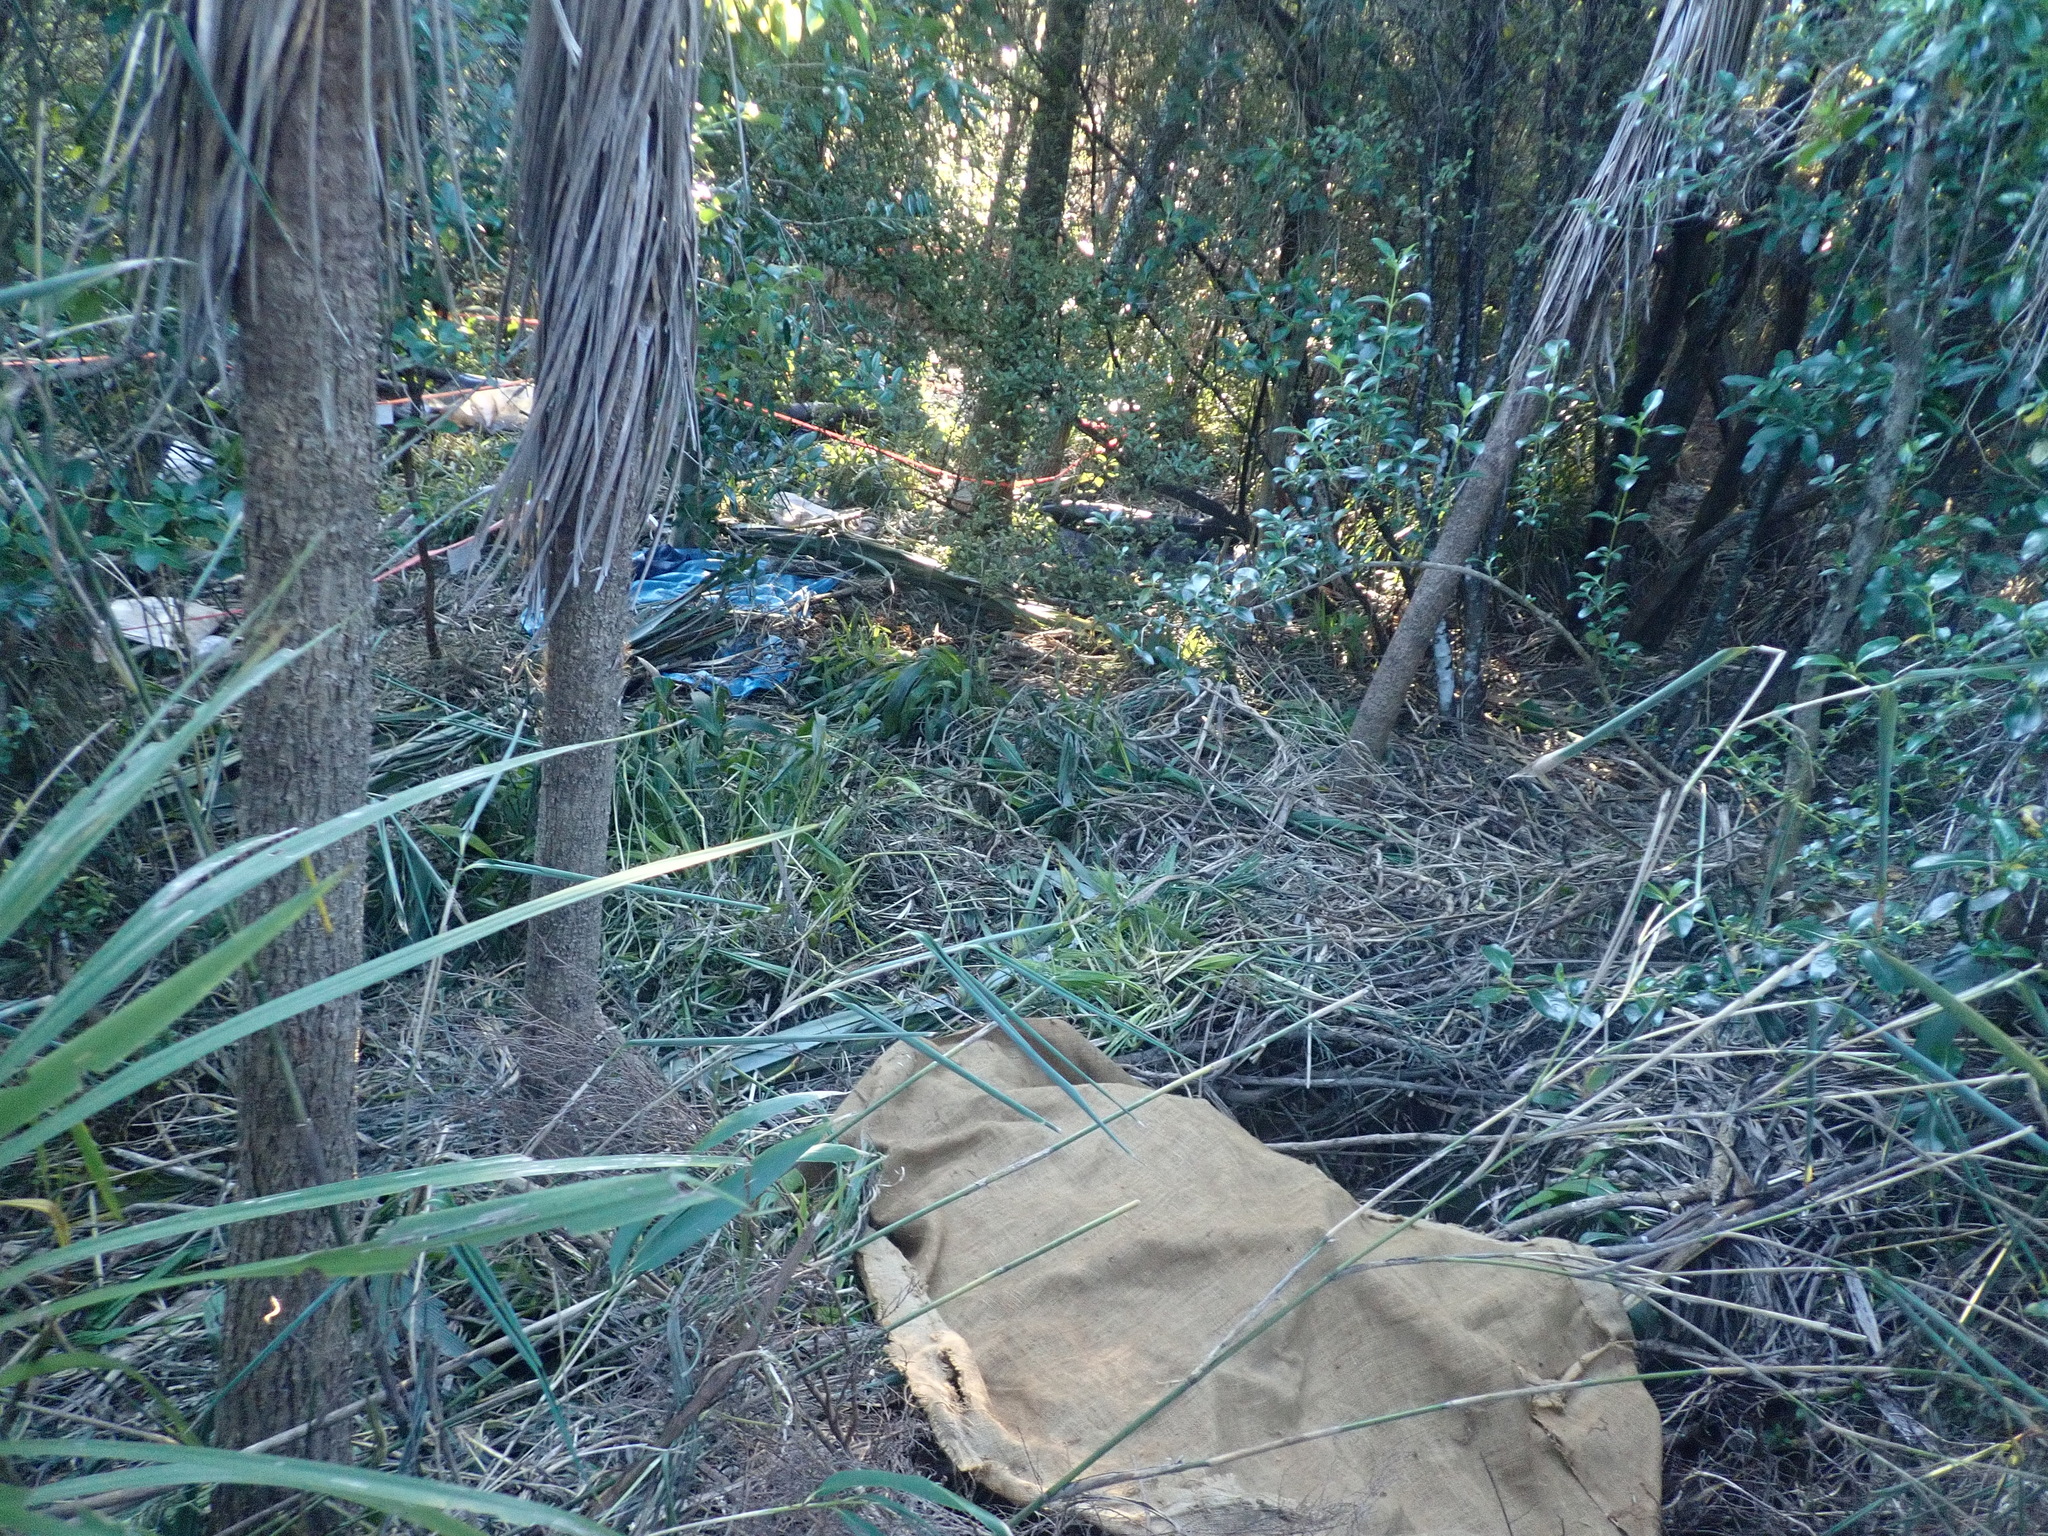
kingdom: Plantae
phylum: Tracheophyta
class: Liliopsida
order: Asparagales
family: Asparagaceae
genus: Cordyline
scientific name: Cordyline australis
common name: Cabbage-palm
